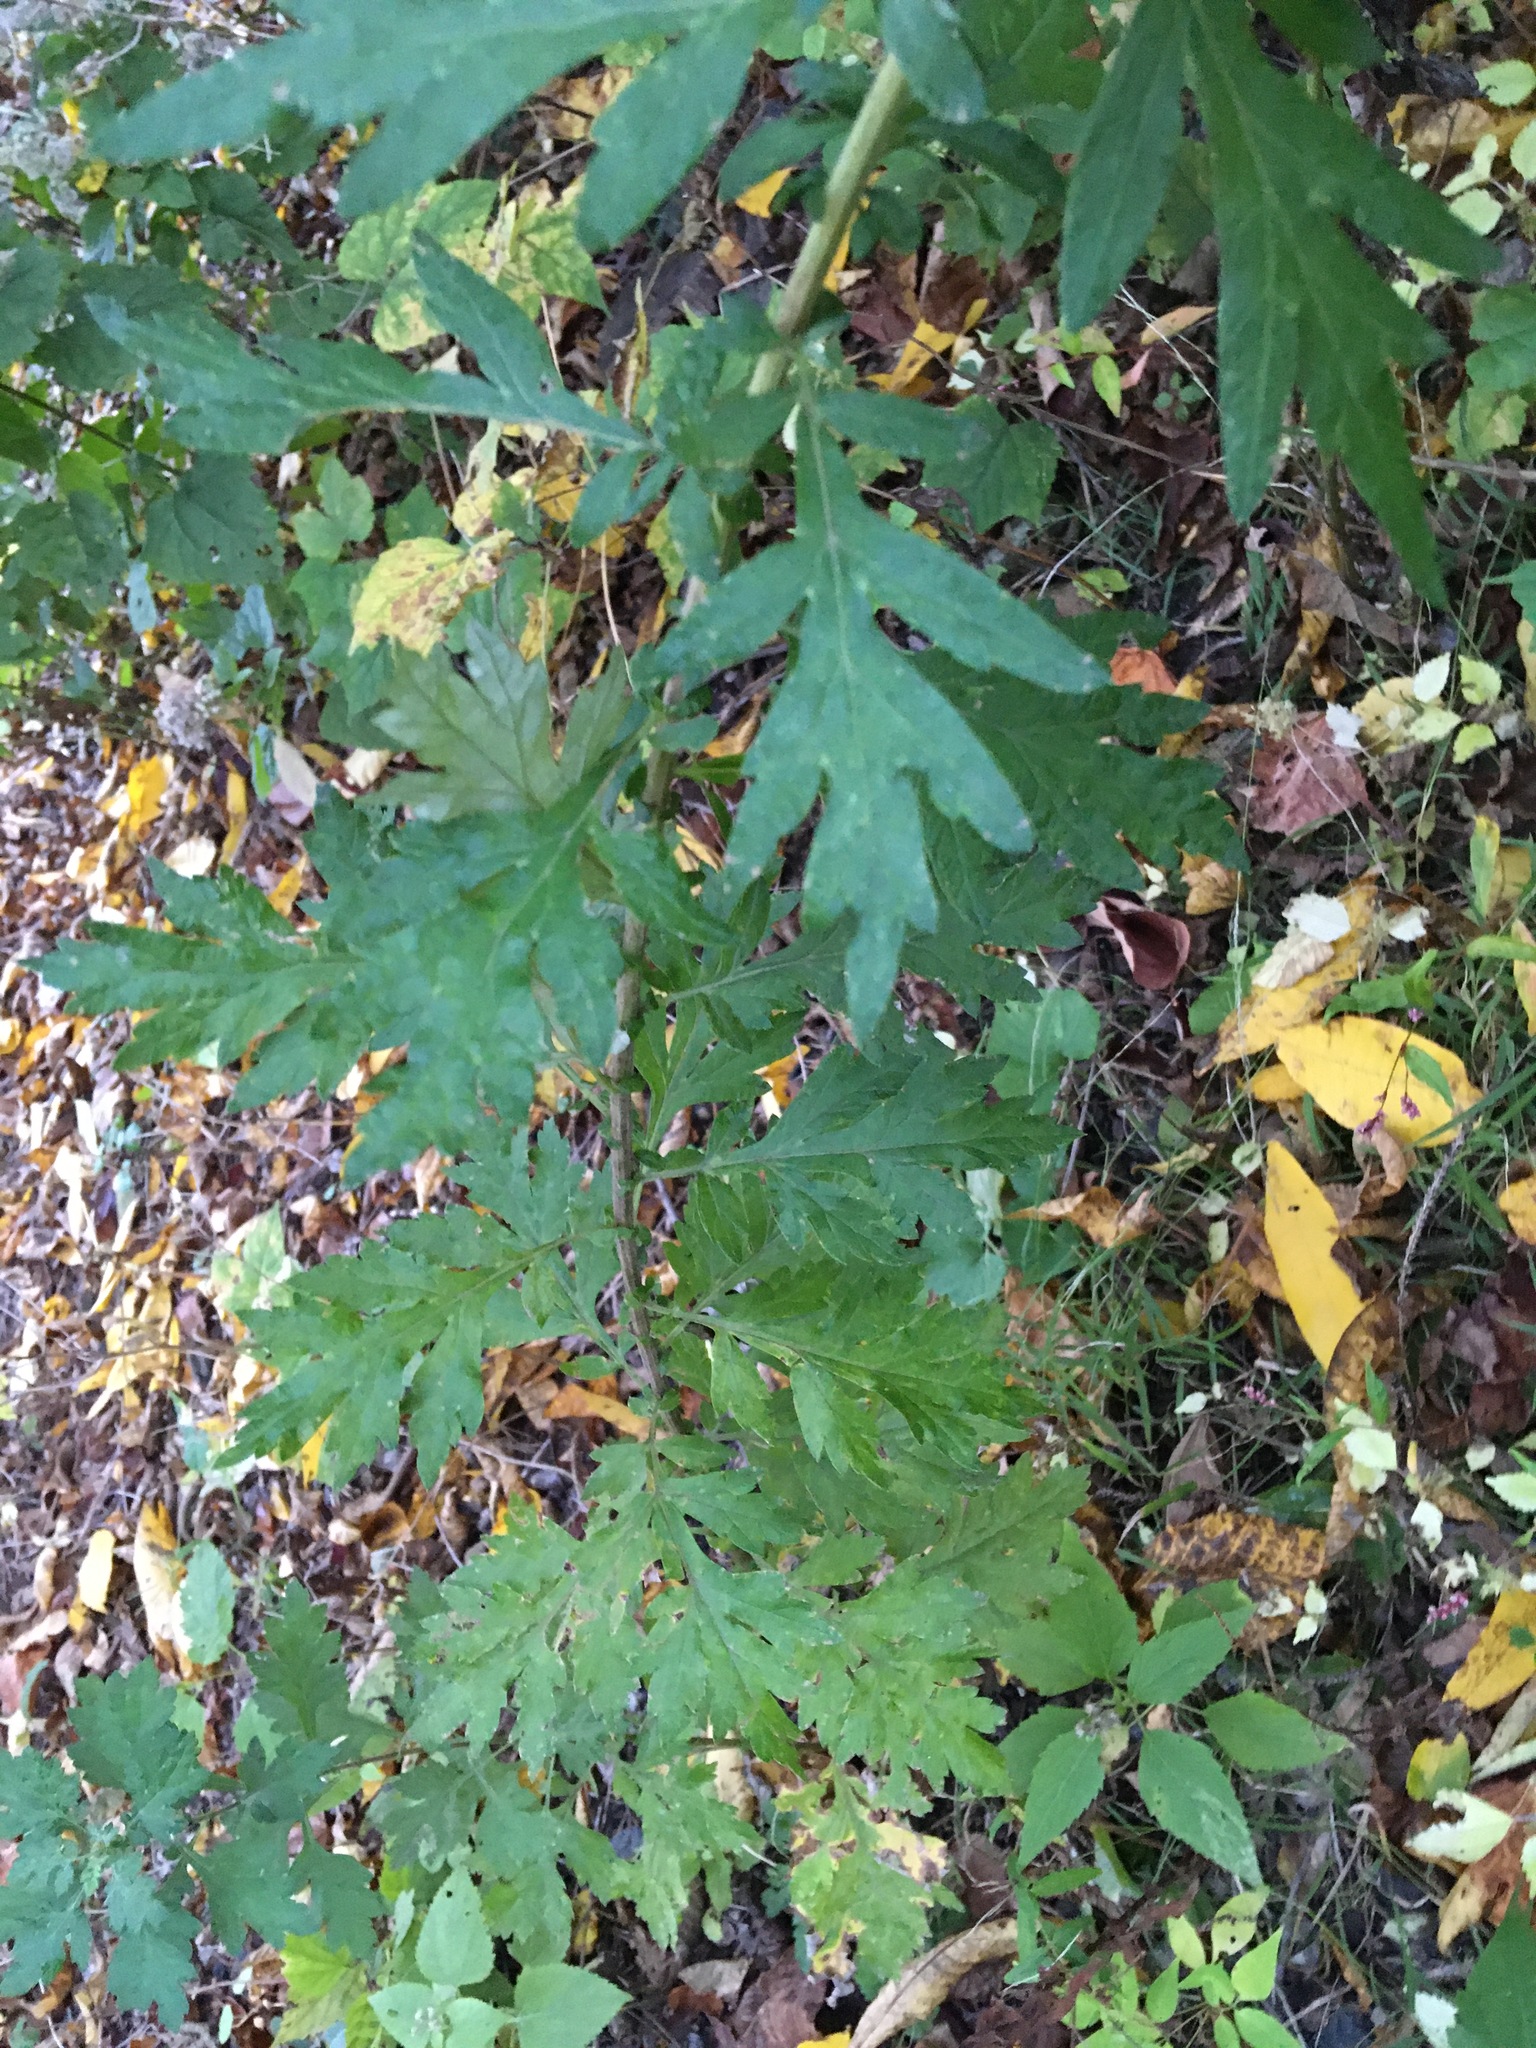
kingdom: Plantae
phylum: Tracheophyta
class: Magnoliopsida
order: Asterales
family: Asteraceae
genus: Artemisia
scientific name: Artemisia vulgaris
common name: Mugwort
